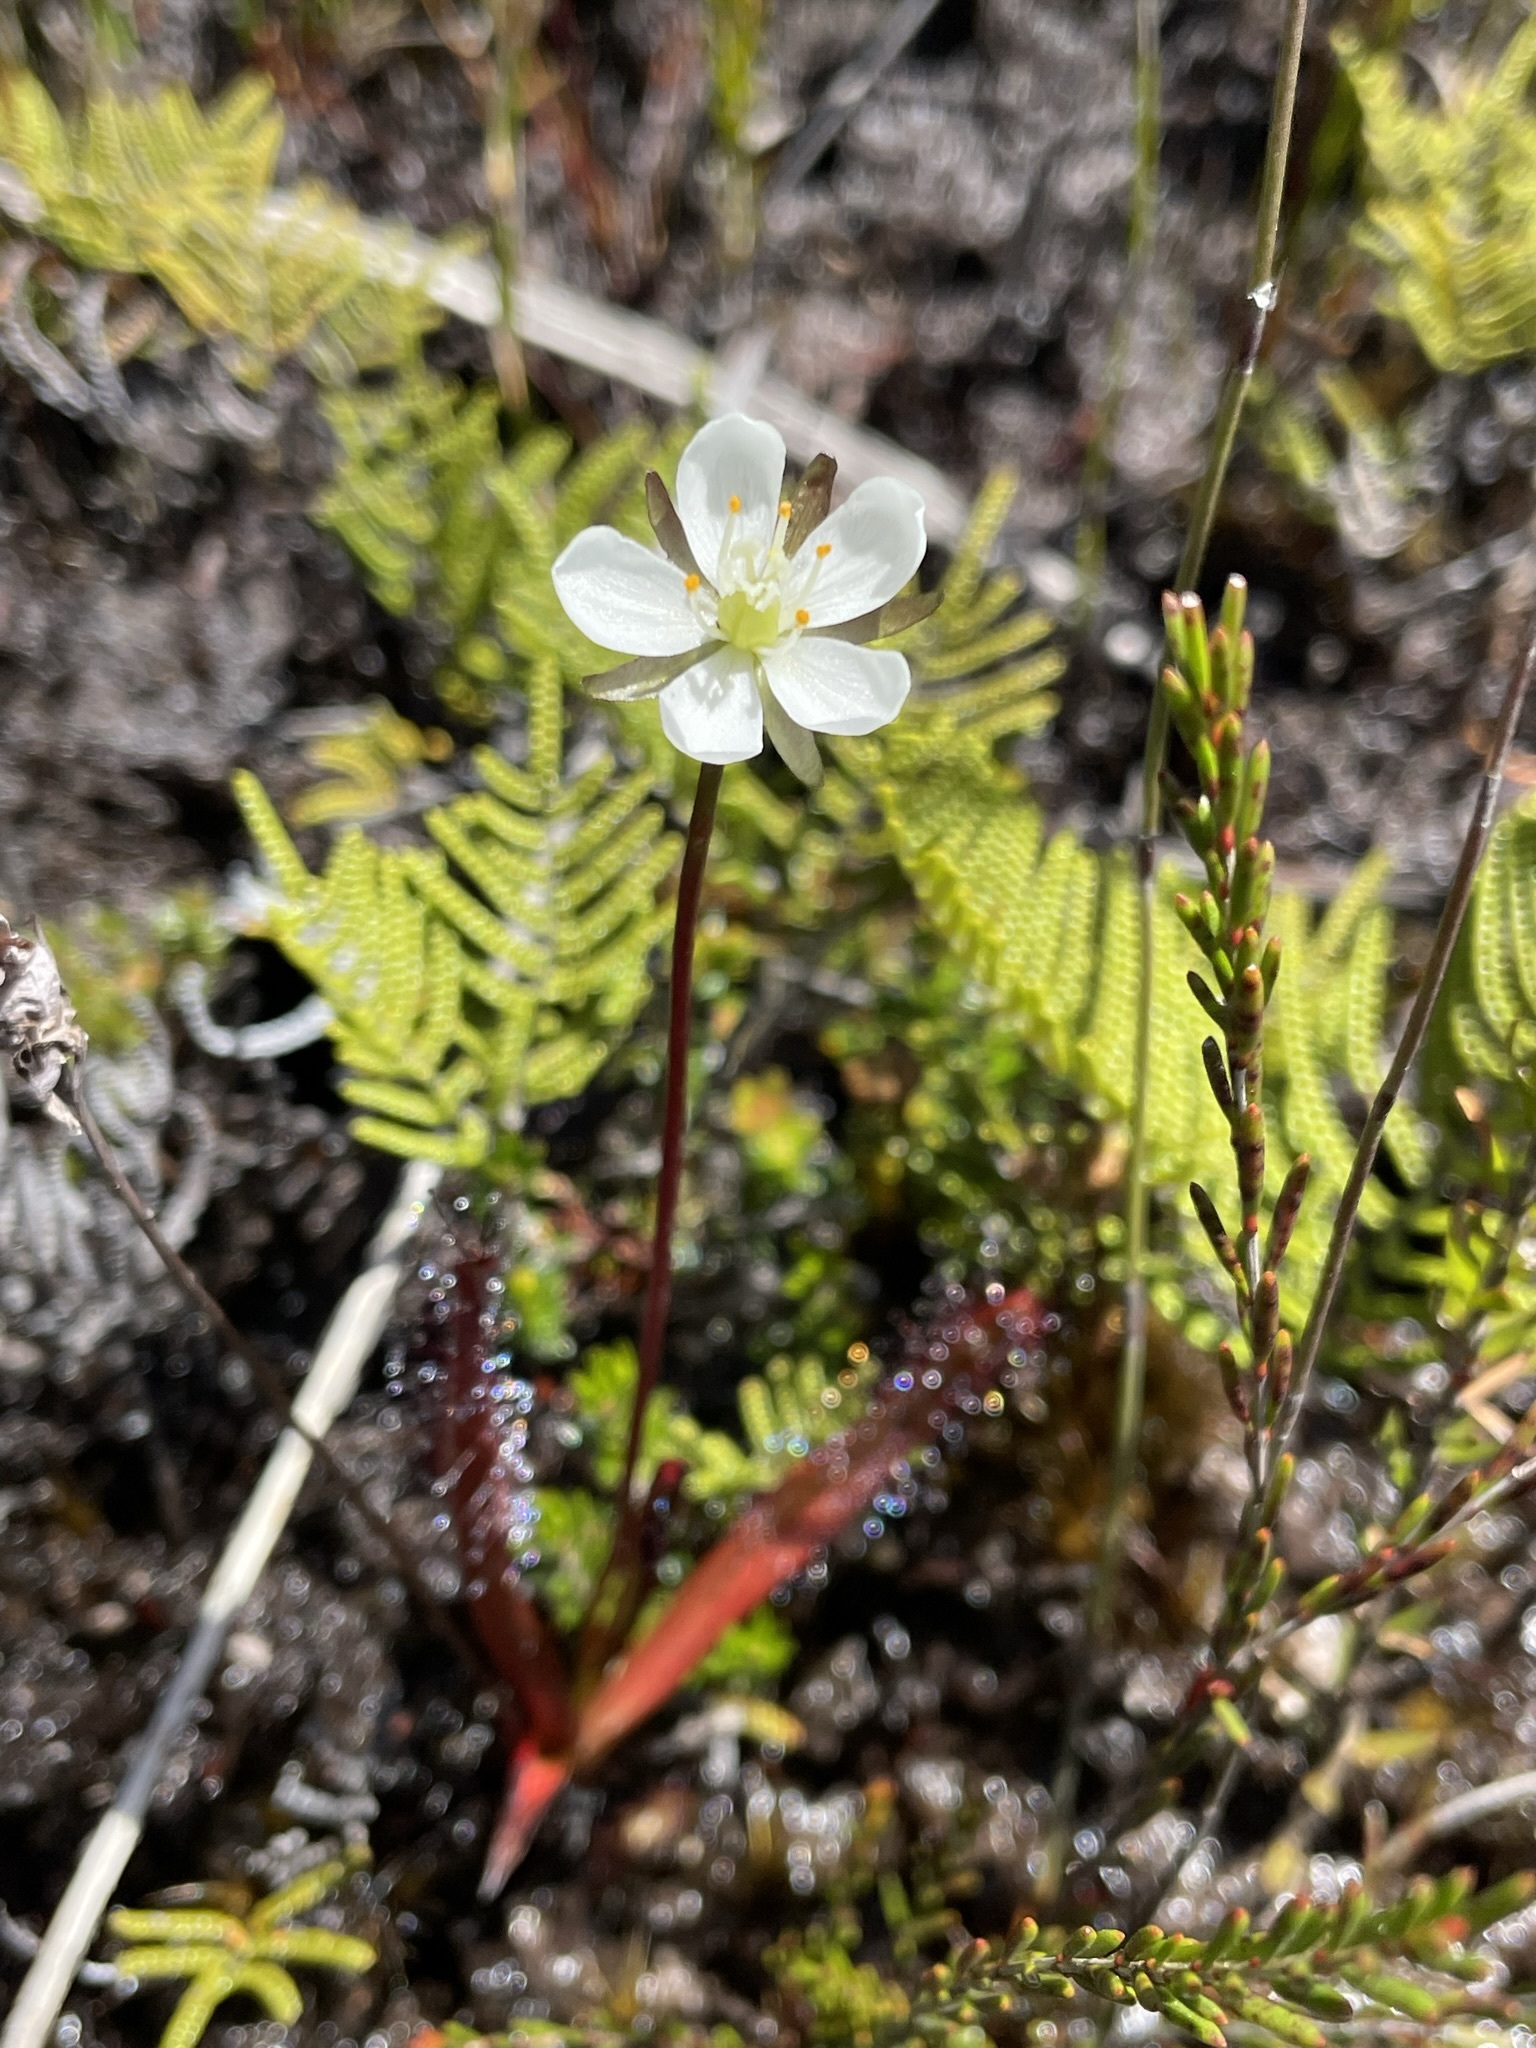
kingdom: Plantae
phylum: Tracheophyta
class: Magnoliopsida
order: Caryophyllales
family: Droseraceae
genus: Drosera
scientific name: Drosera murfetii
